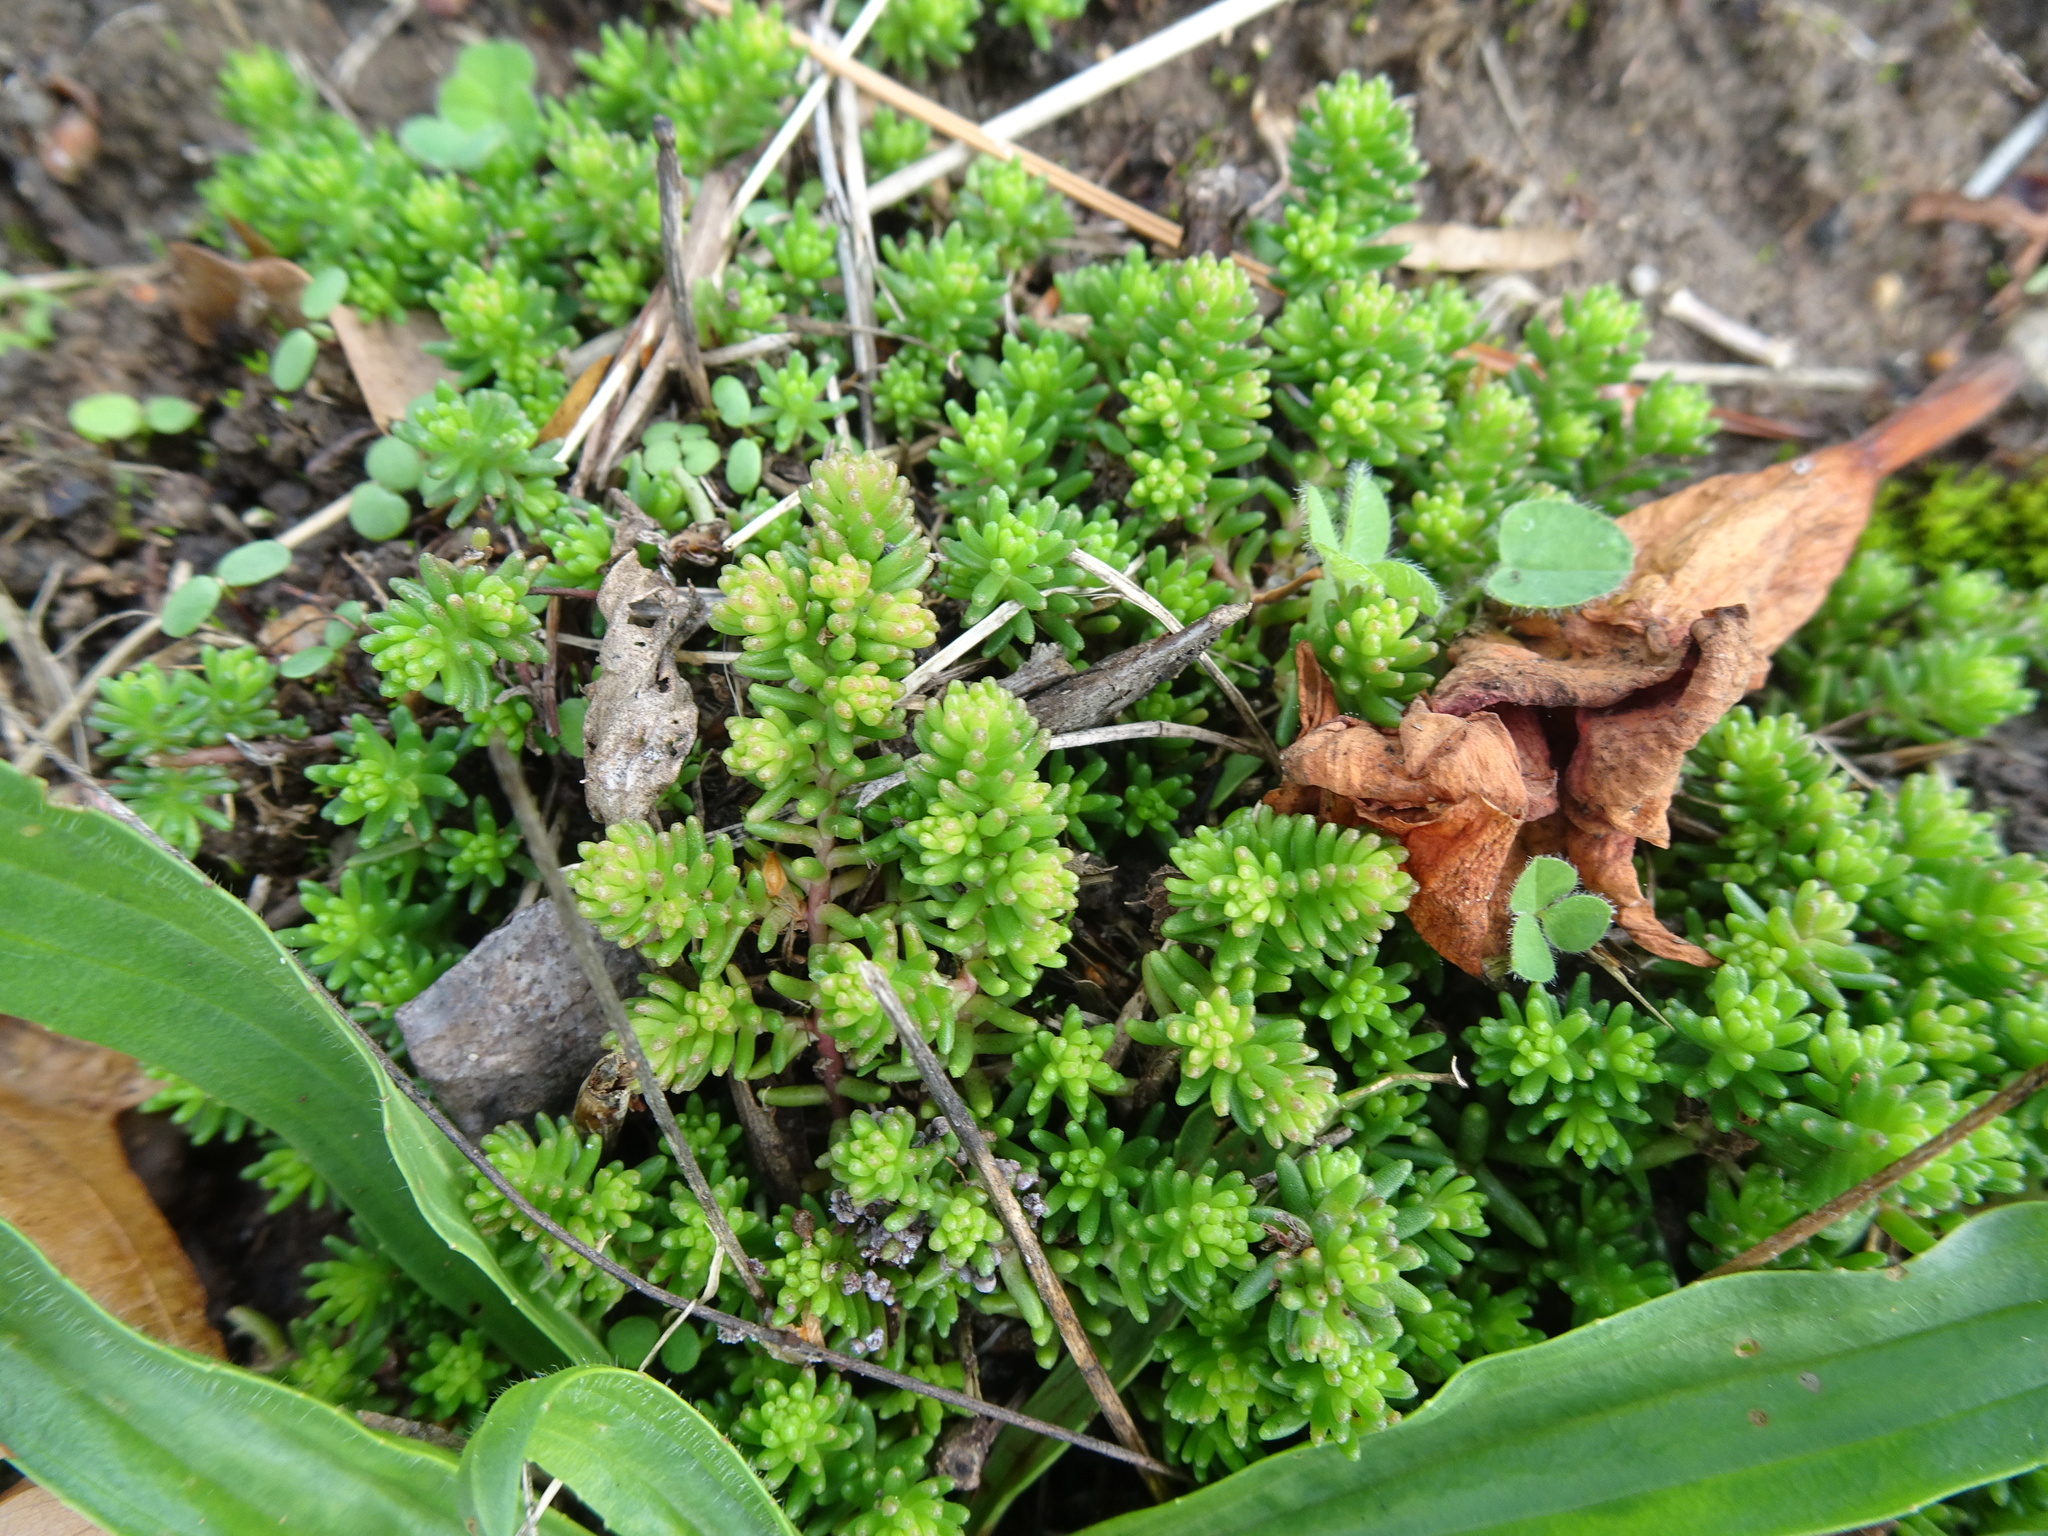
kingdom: Plantae
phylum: Tracheophyta
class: Magnoliopsida
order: Saxifragales
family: Crassulaceae
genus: Sedum
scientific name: Sedum sexangulare
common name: Tasteless stonecrop
